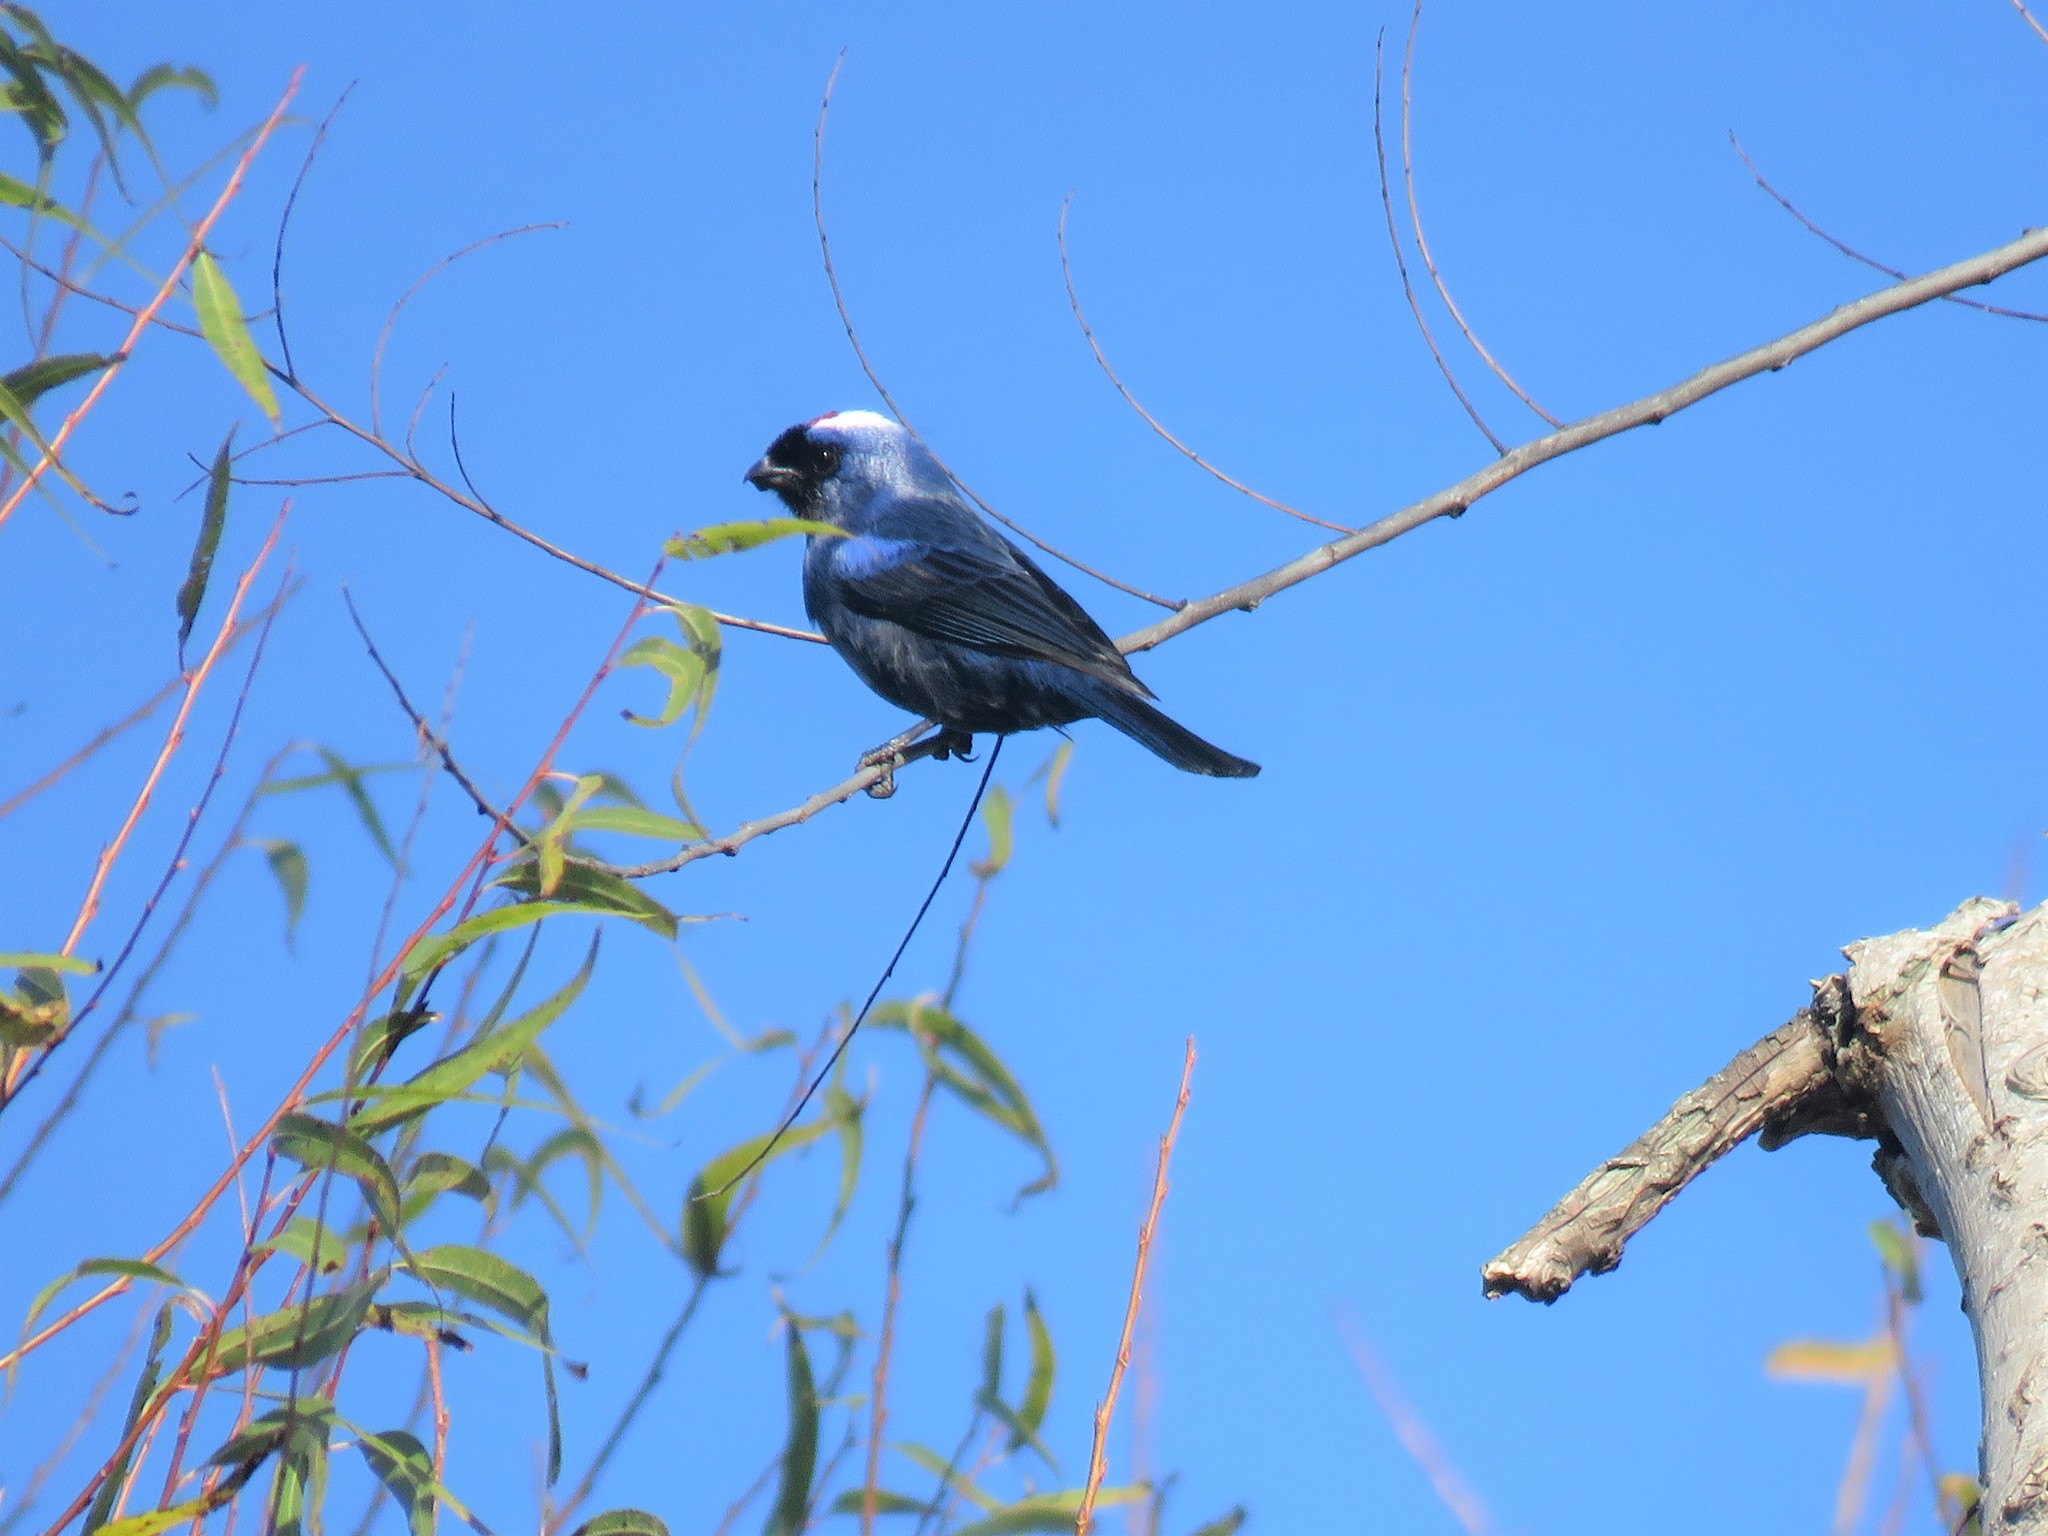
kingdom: Animalia
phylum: Chordata
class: Aves
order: Passeriformes
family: Thraupidae
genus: Stephanophorus
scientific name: Stephanophorus diadematus
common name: Diademed tanager
